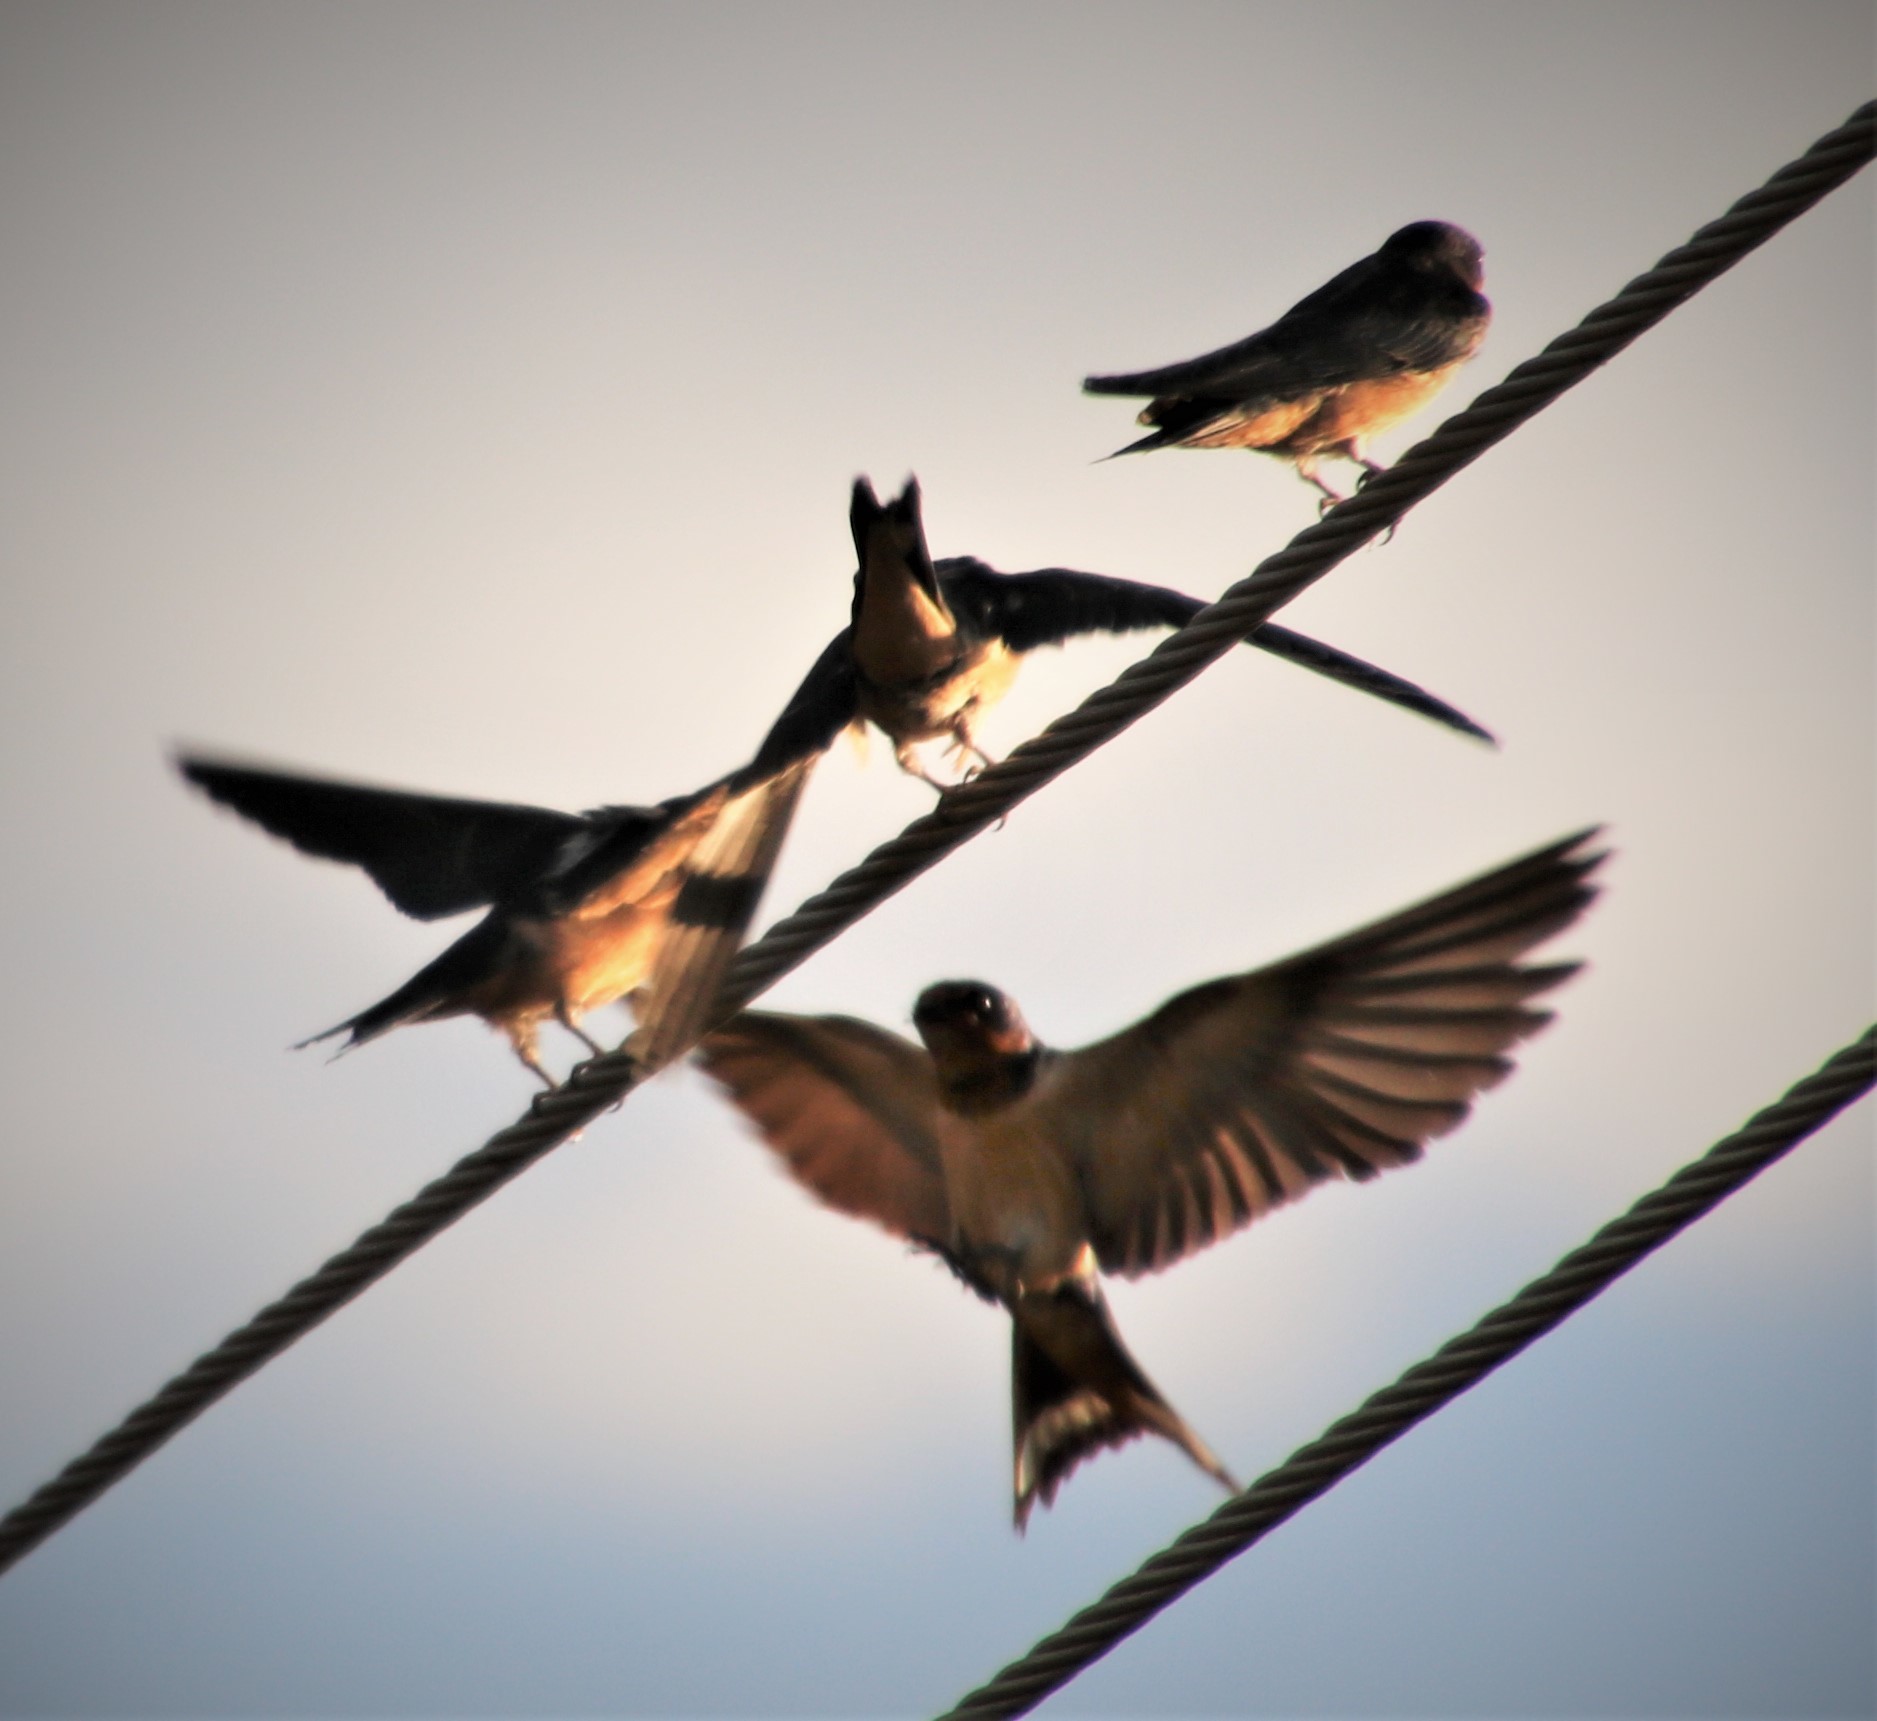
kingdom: Animalia
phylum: Chordata
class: Aves
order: Passeriformes
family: Hirundinidae
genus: Hirundo
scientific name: Hirundo rustica
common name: Barn swallow
